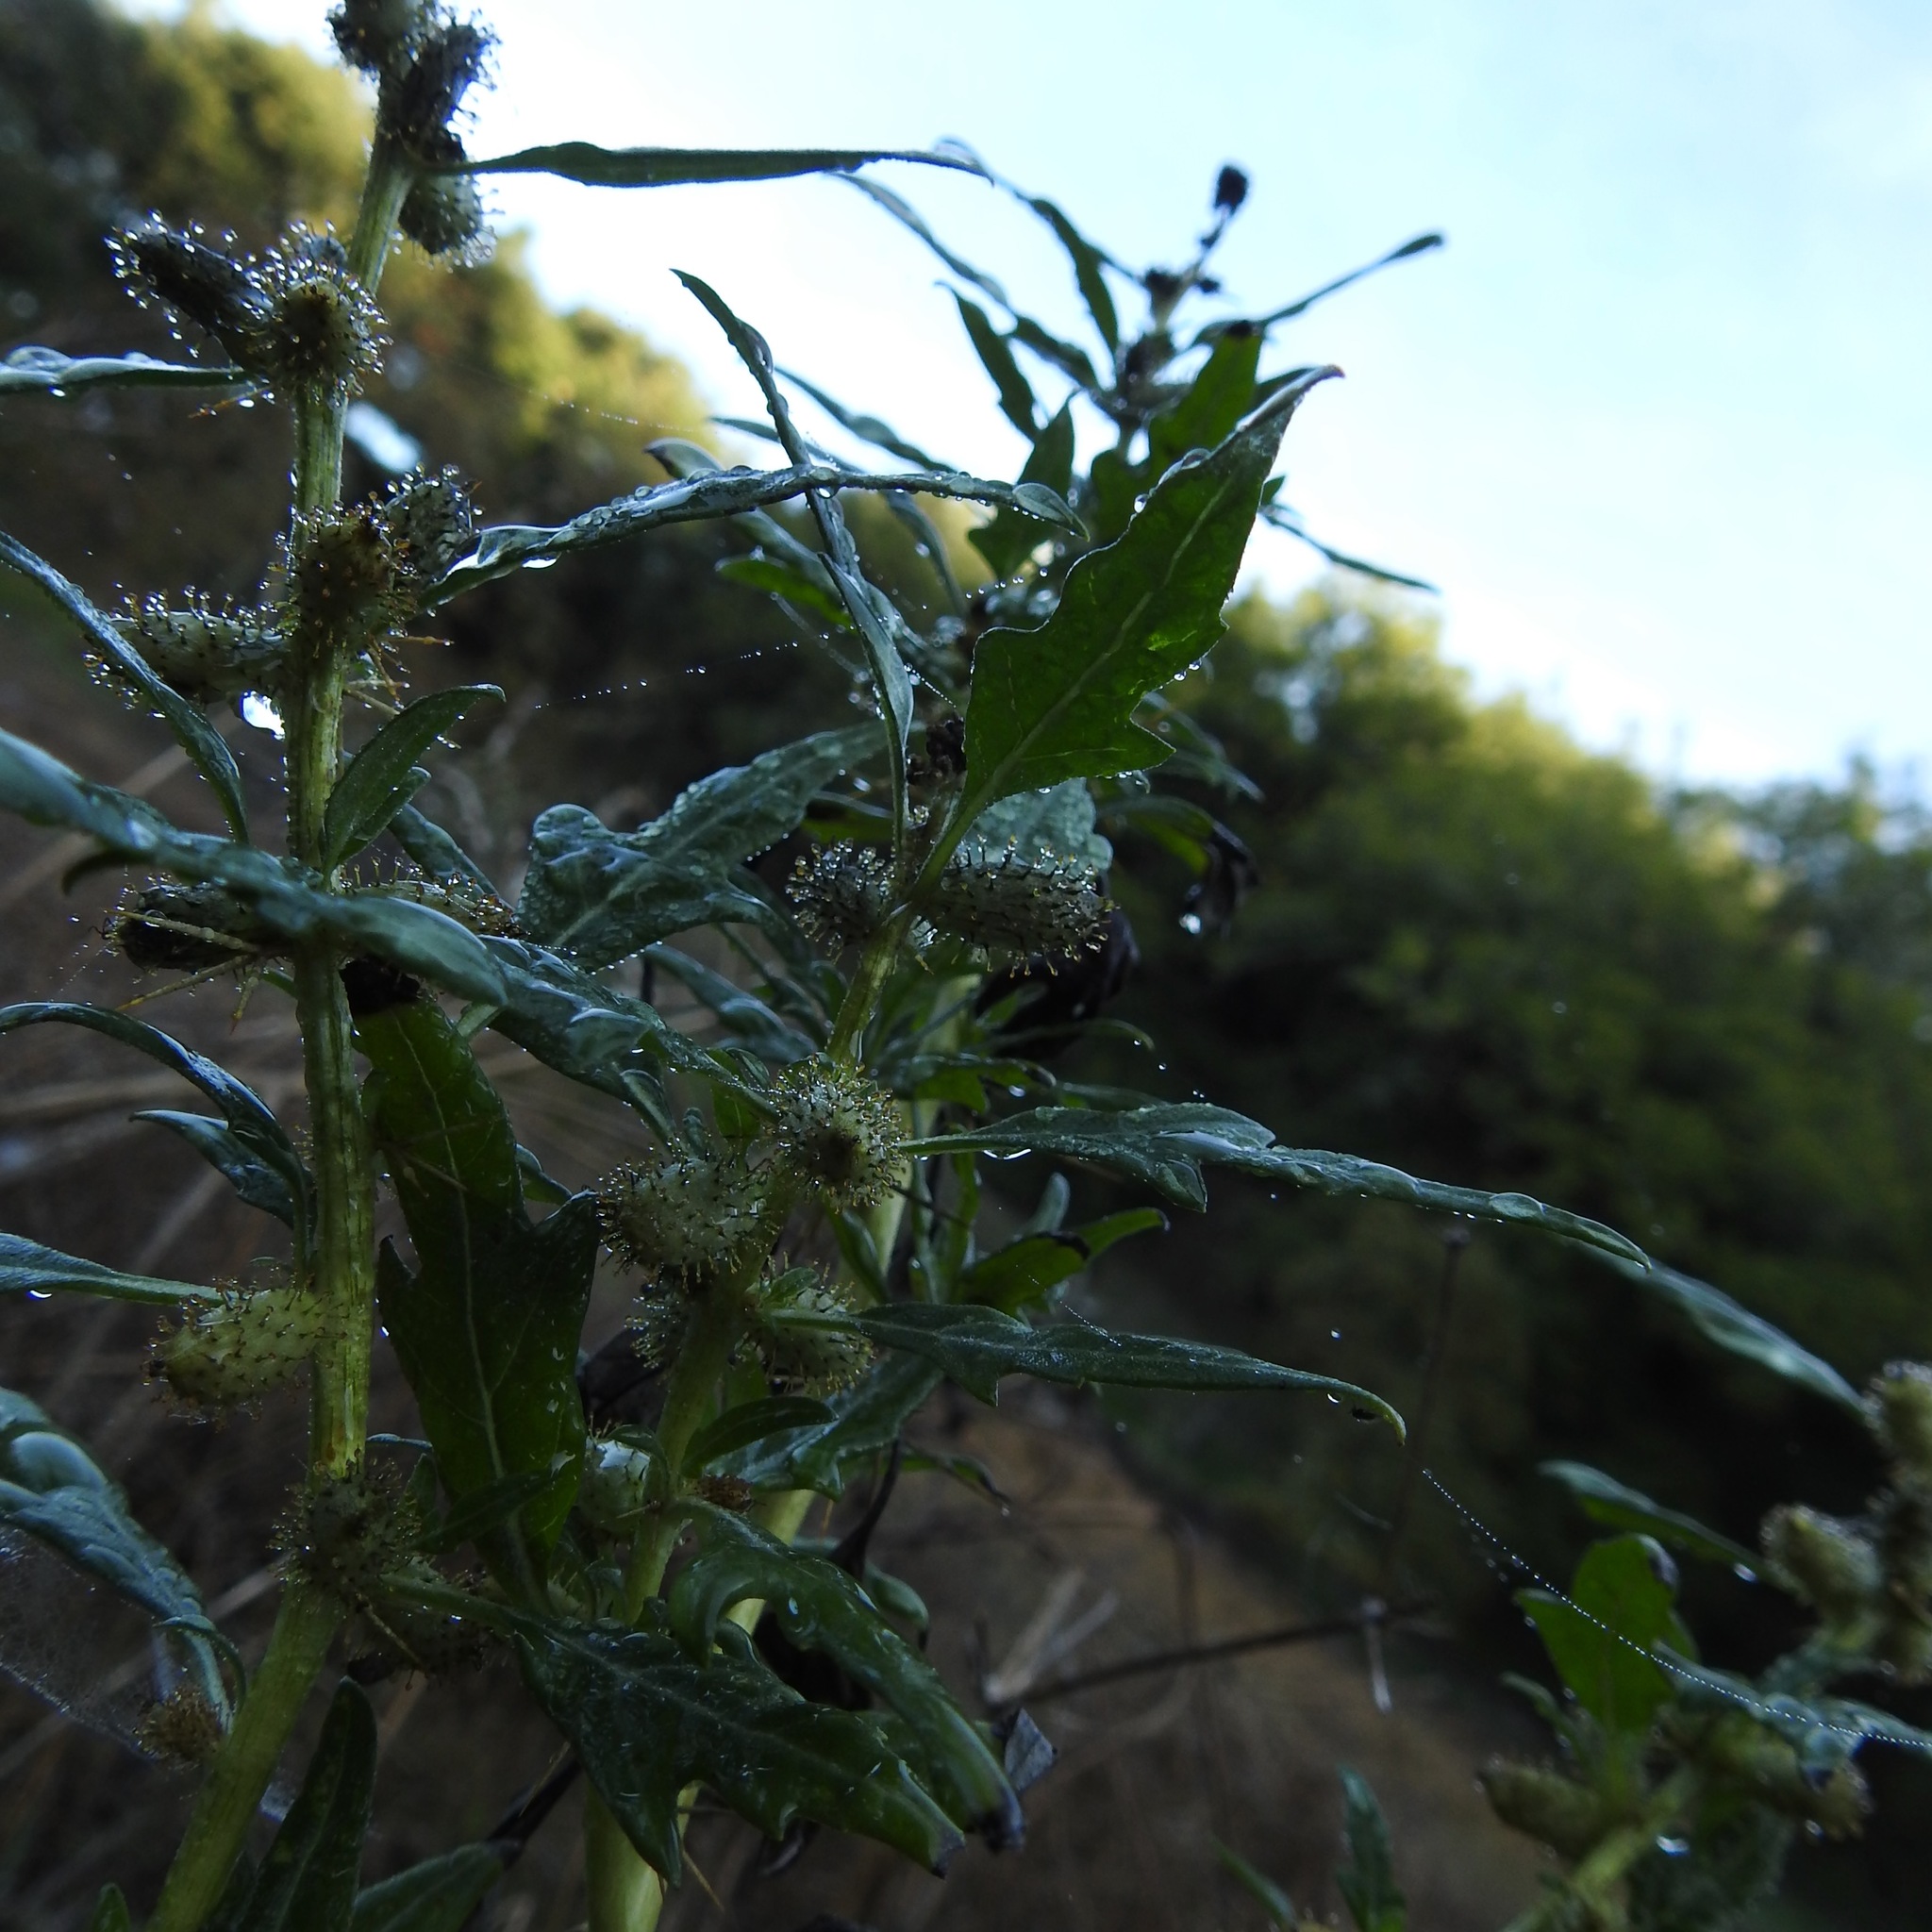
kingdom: Plantae
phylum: Tracheophyta
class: Magnoliopsida
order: Asterales
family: Asteraceae
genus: Xanthium
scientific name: Xanthium spinosum
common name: Spiny cocklebur
